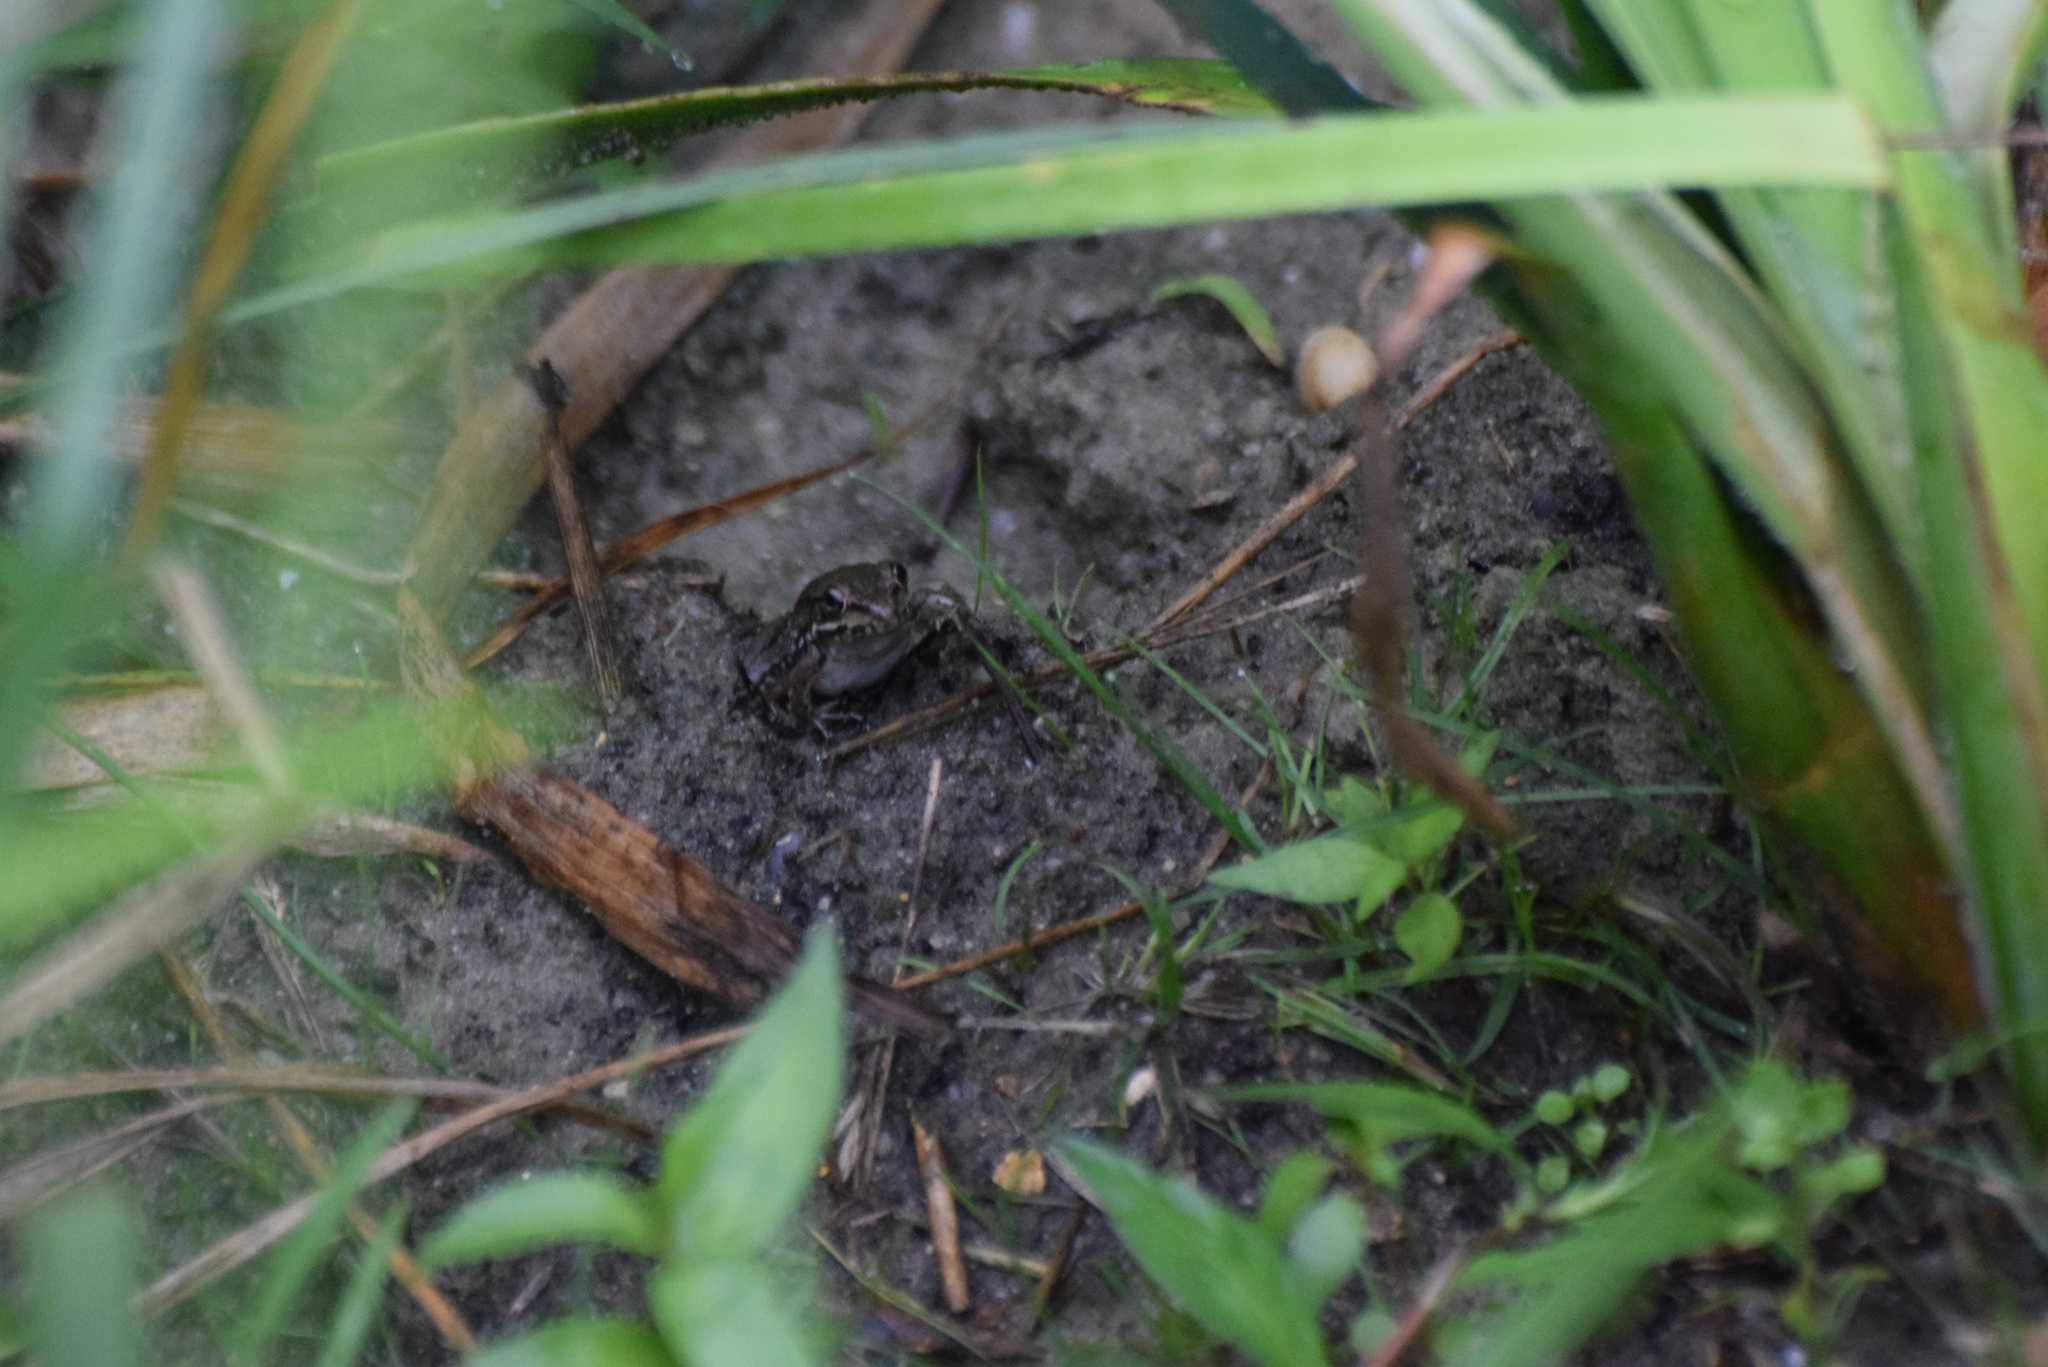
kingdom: Animalia
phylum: Chordata
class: Amphibia
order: Anura
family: Ranidae
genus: Lithobates
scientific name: Lithobates clamitans
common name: Green frog
